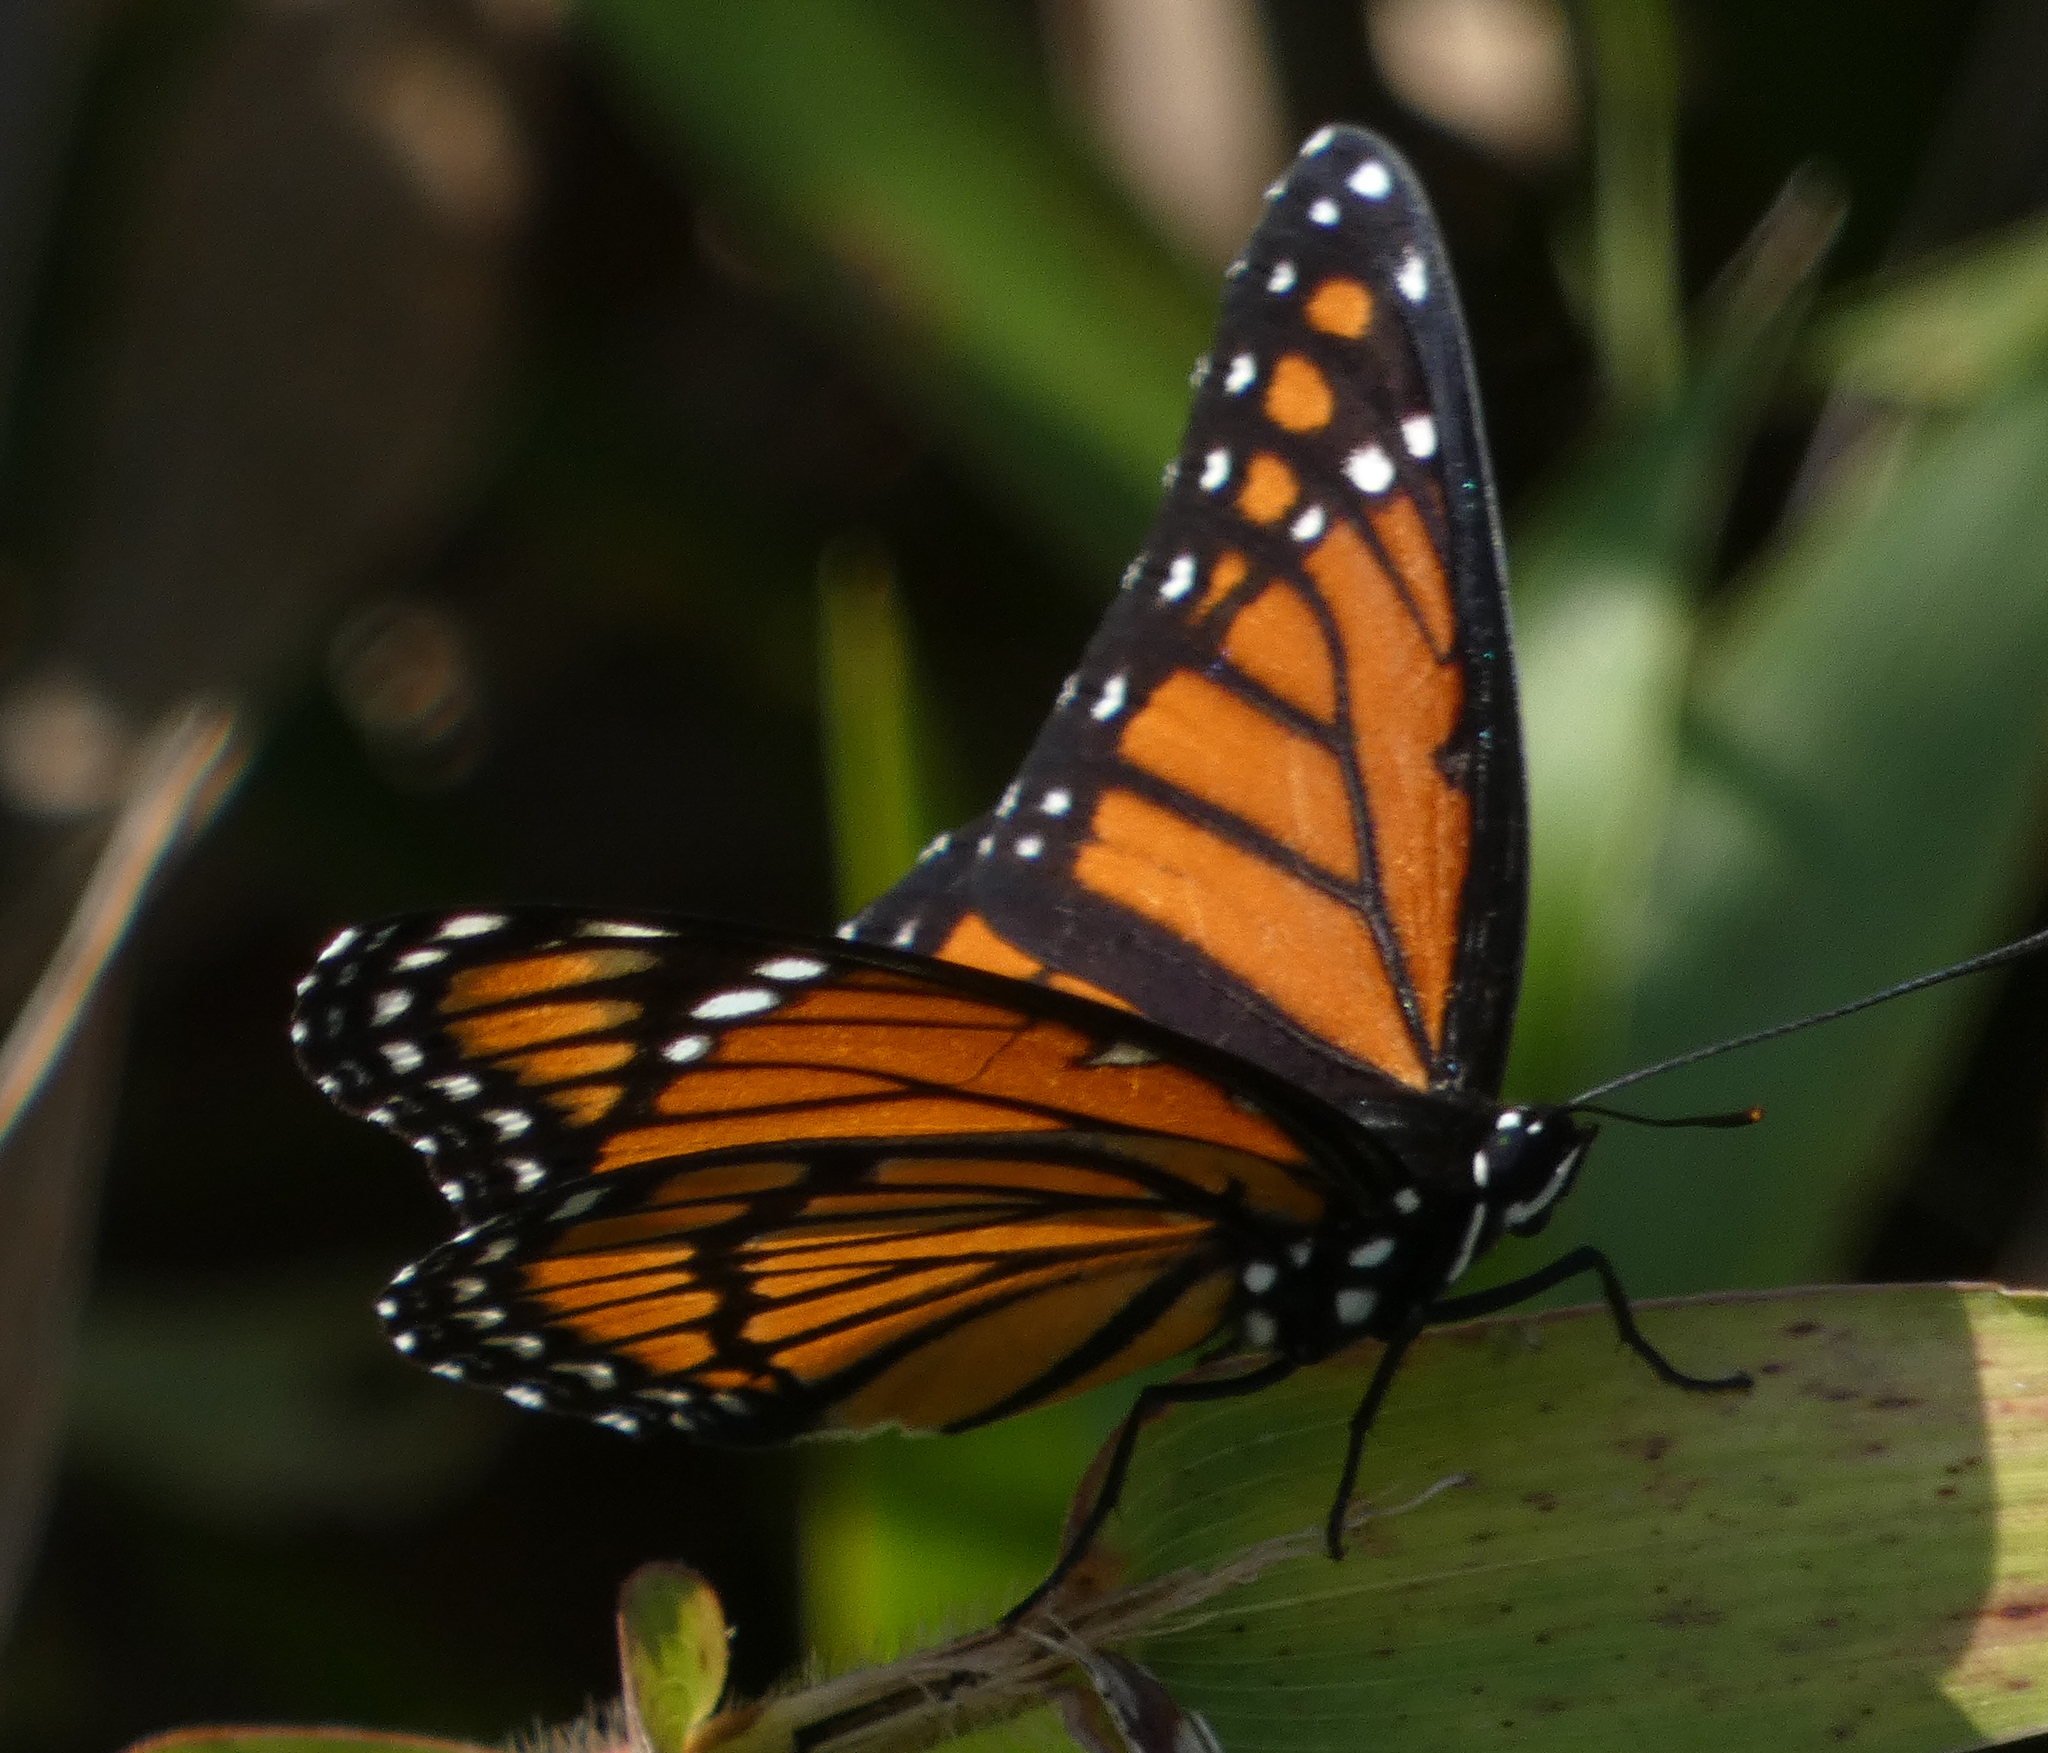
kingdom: Animalia
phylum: Arthropoda
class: Insecta
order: Lepidoptera
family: Nymphalidae
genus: Limenitis
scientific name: Limenitis archippus
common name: Viceroy
